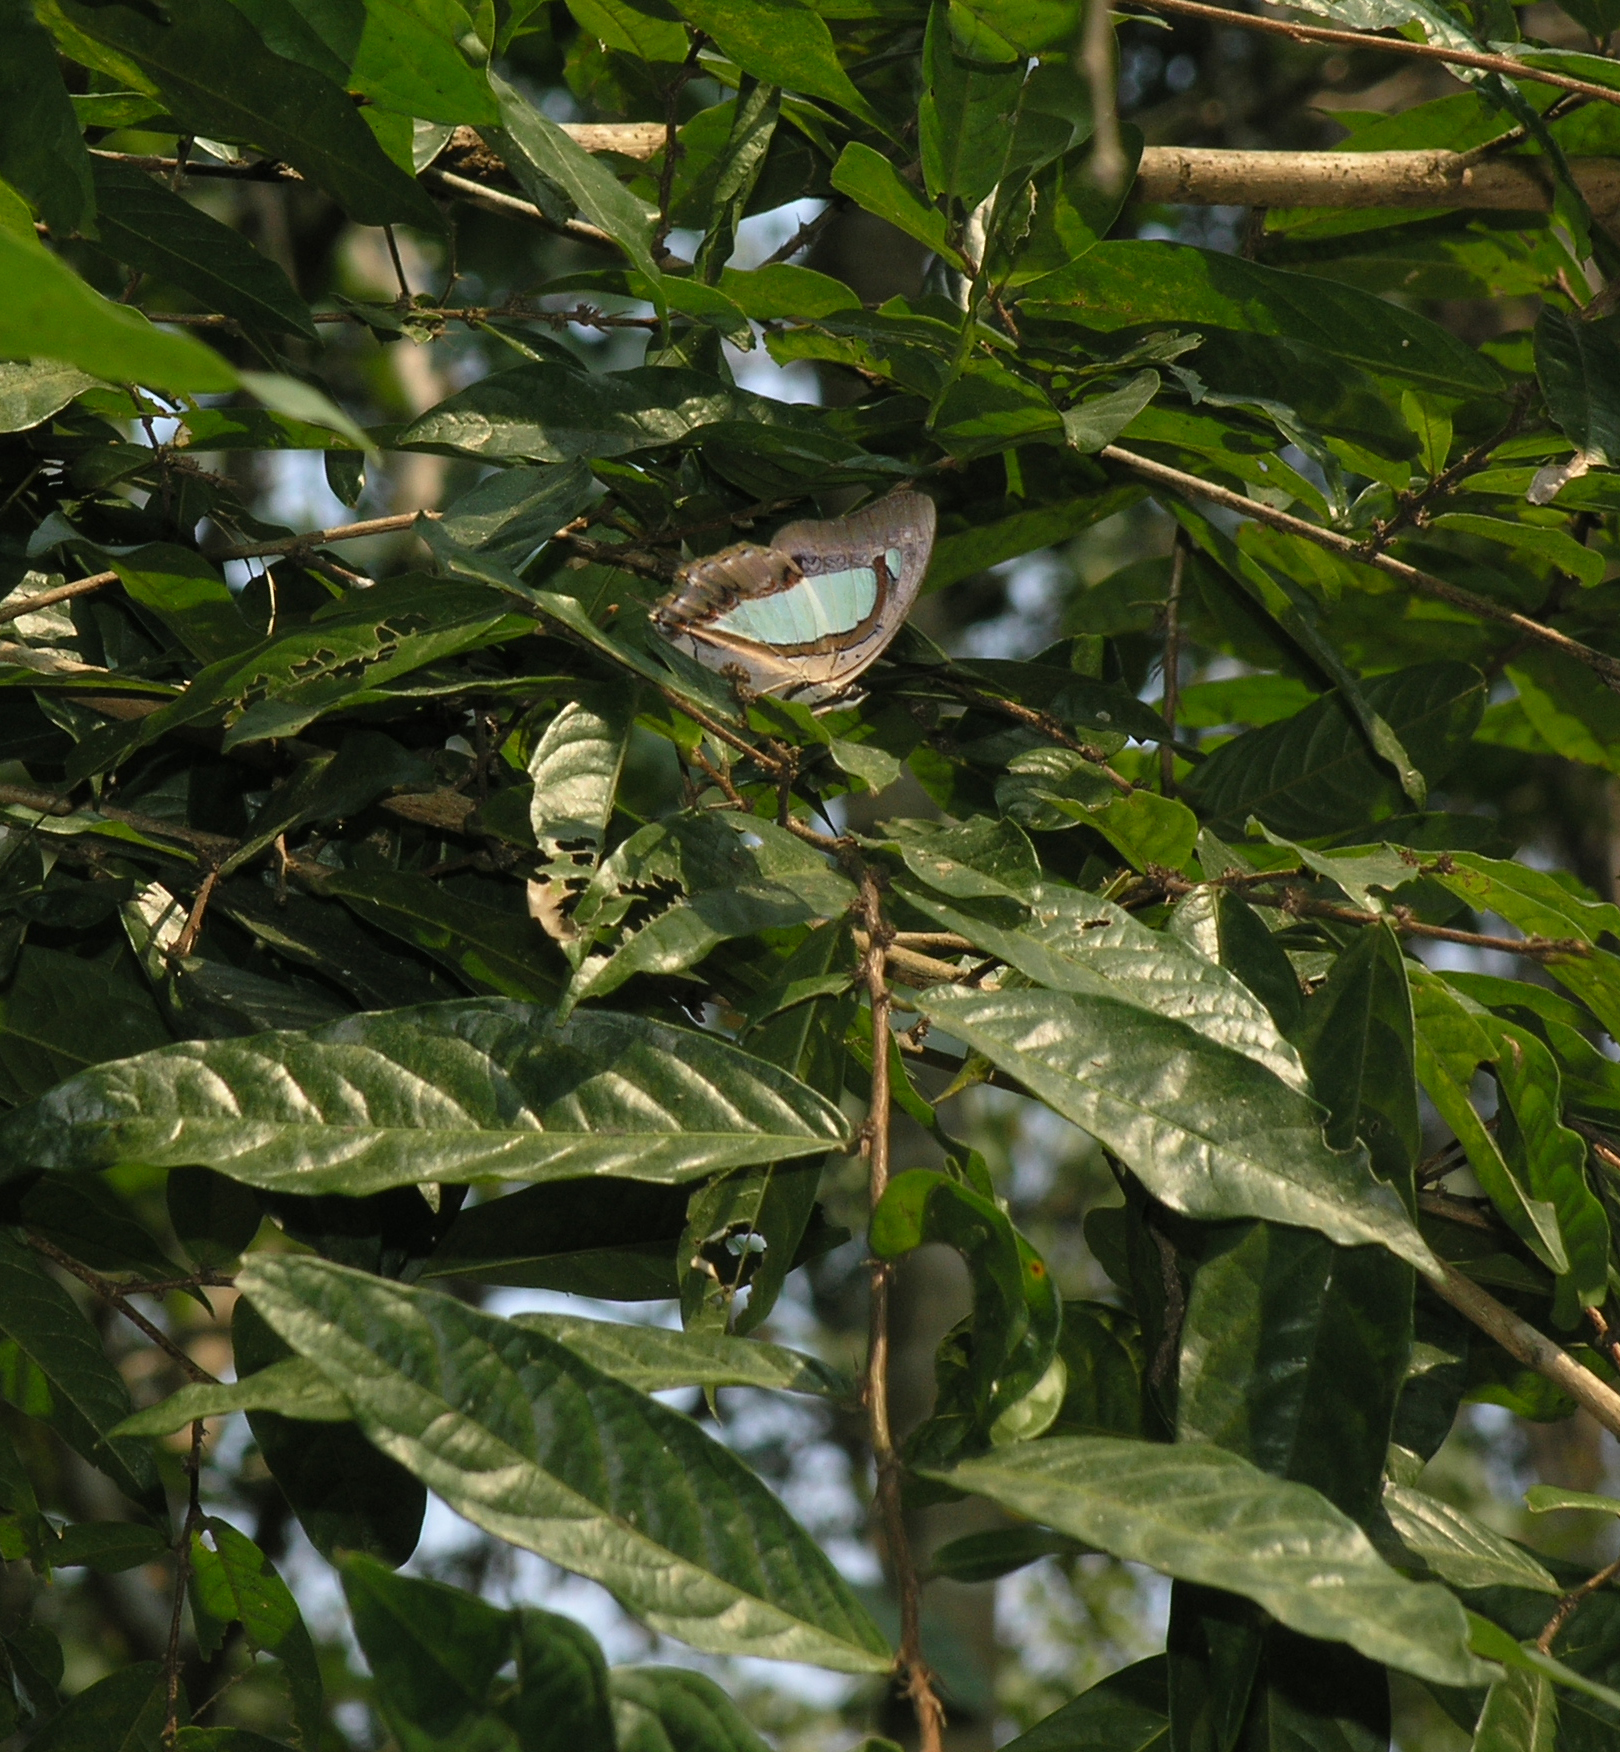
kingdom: Animalia
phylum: Arthropoda
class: Insecta
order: Lepidoptera
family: Nymphalidae
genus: Polyura
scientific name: Polyura arja
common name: Pallid nawab
